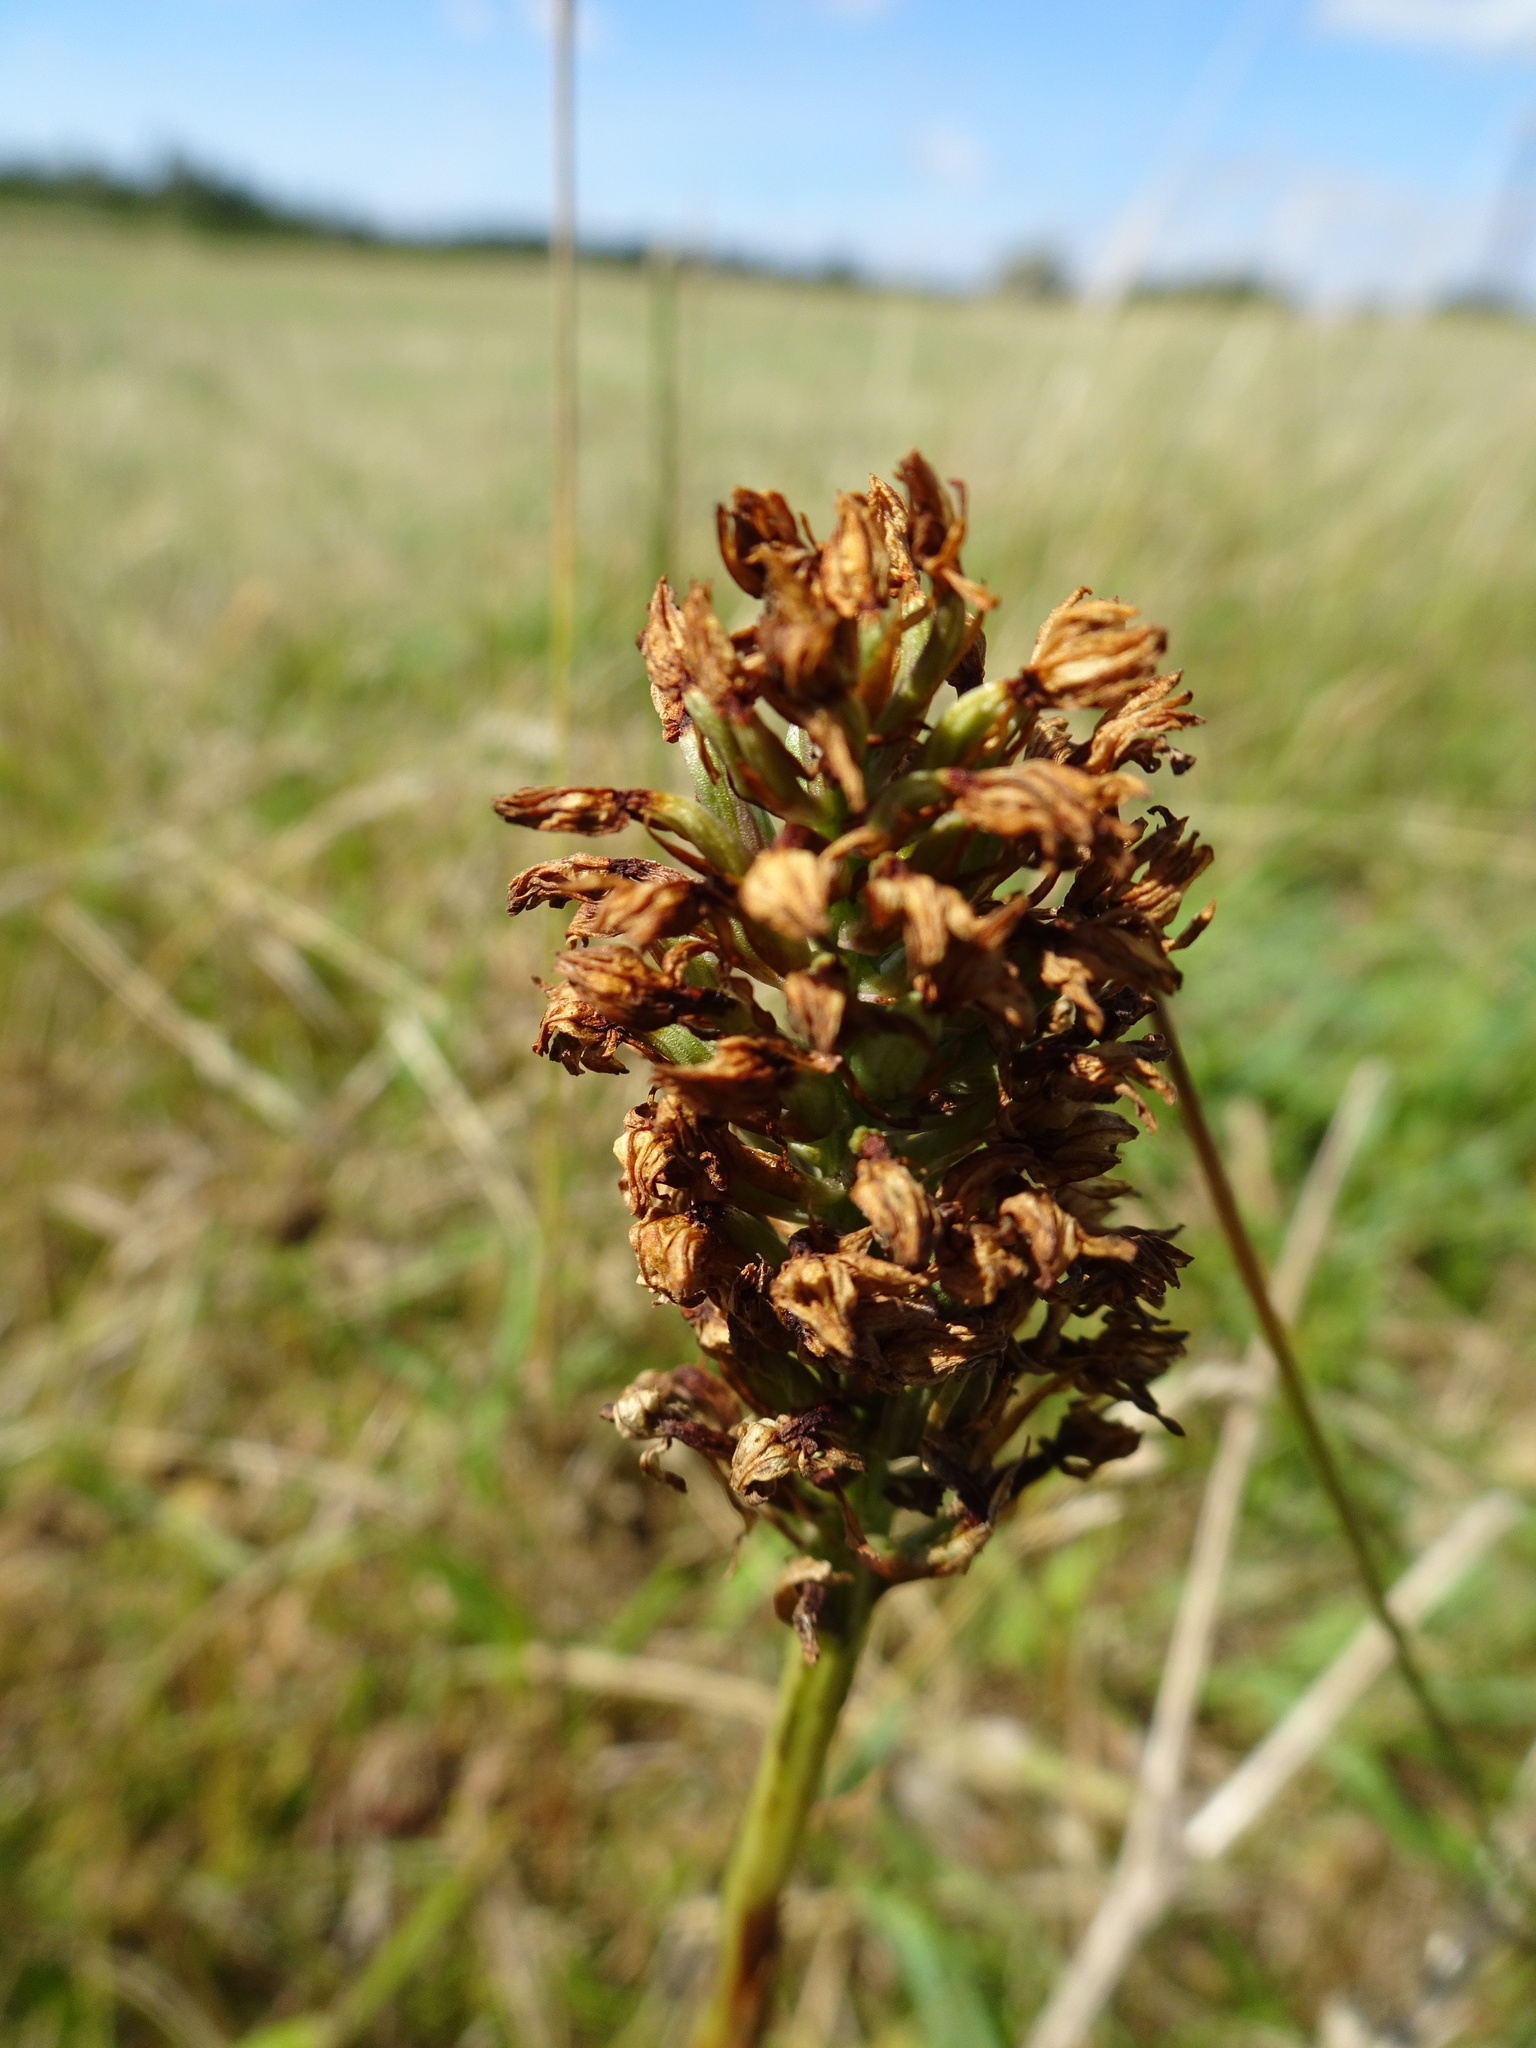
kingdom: Plantae
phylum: Tracheophyta
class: Liliopsida
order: Asparagales
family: Orchidaceae
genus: Anacamptis
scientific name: Anacamptis pyramidalis
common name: Pyramidal orchid
